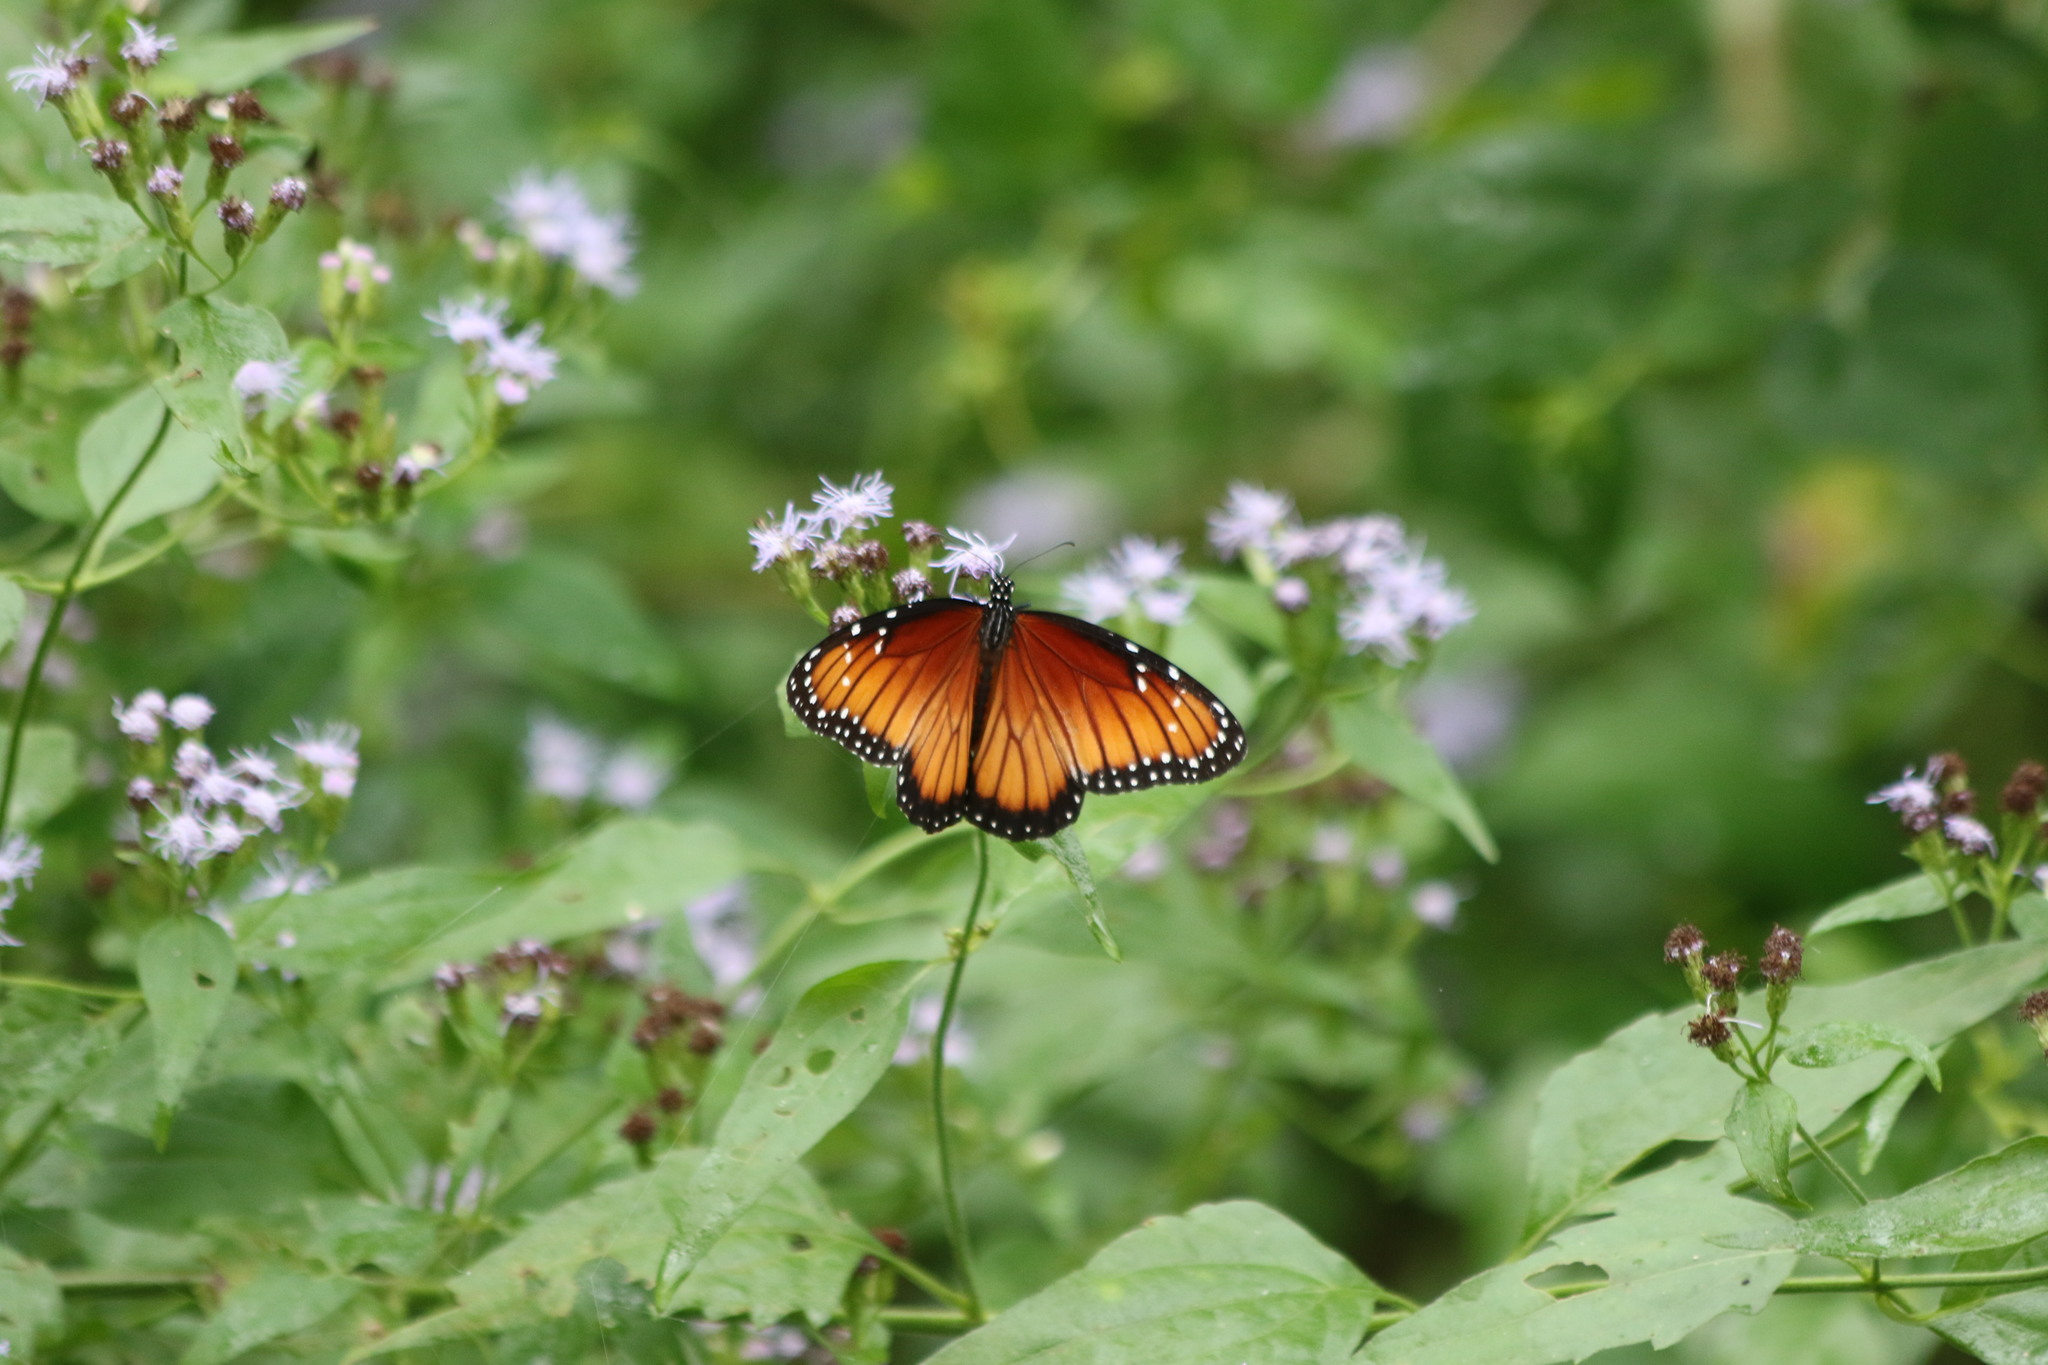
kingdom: Animalia
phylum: Arthropoda
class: Insecta
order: Lepidoptera
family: Nymphalidae
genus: Danaus
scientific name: Danaus eresimus
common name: Soldier
